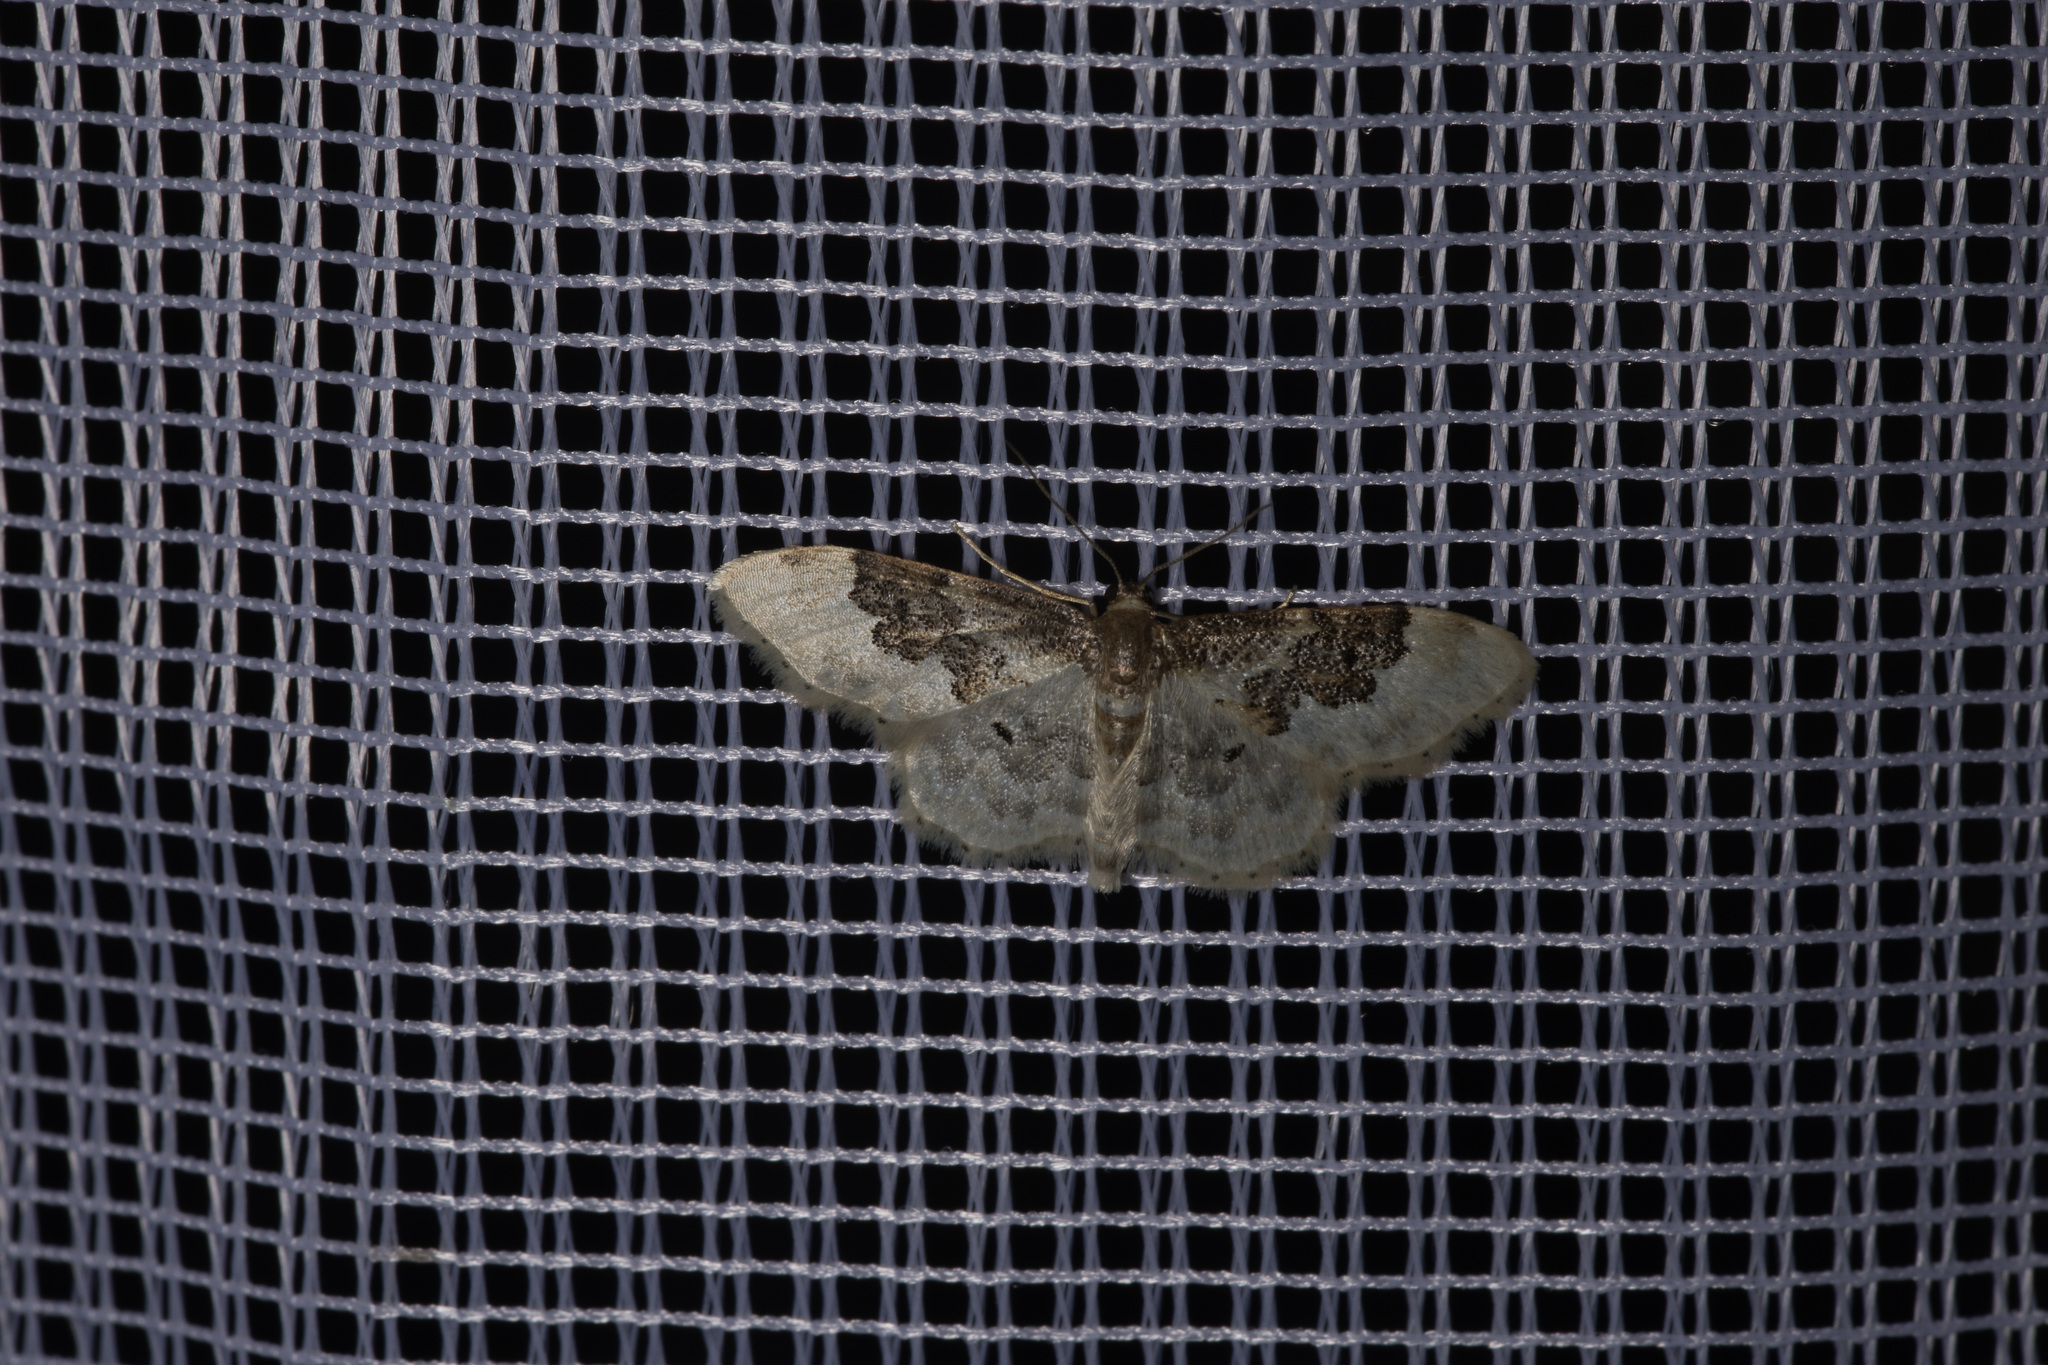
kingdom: Animalia
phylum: Arthropoda
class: Insecta
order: Lepidoptera
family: Geometridae
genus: Idaea
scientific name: Idaea rusticata
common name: Least carpet
